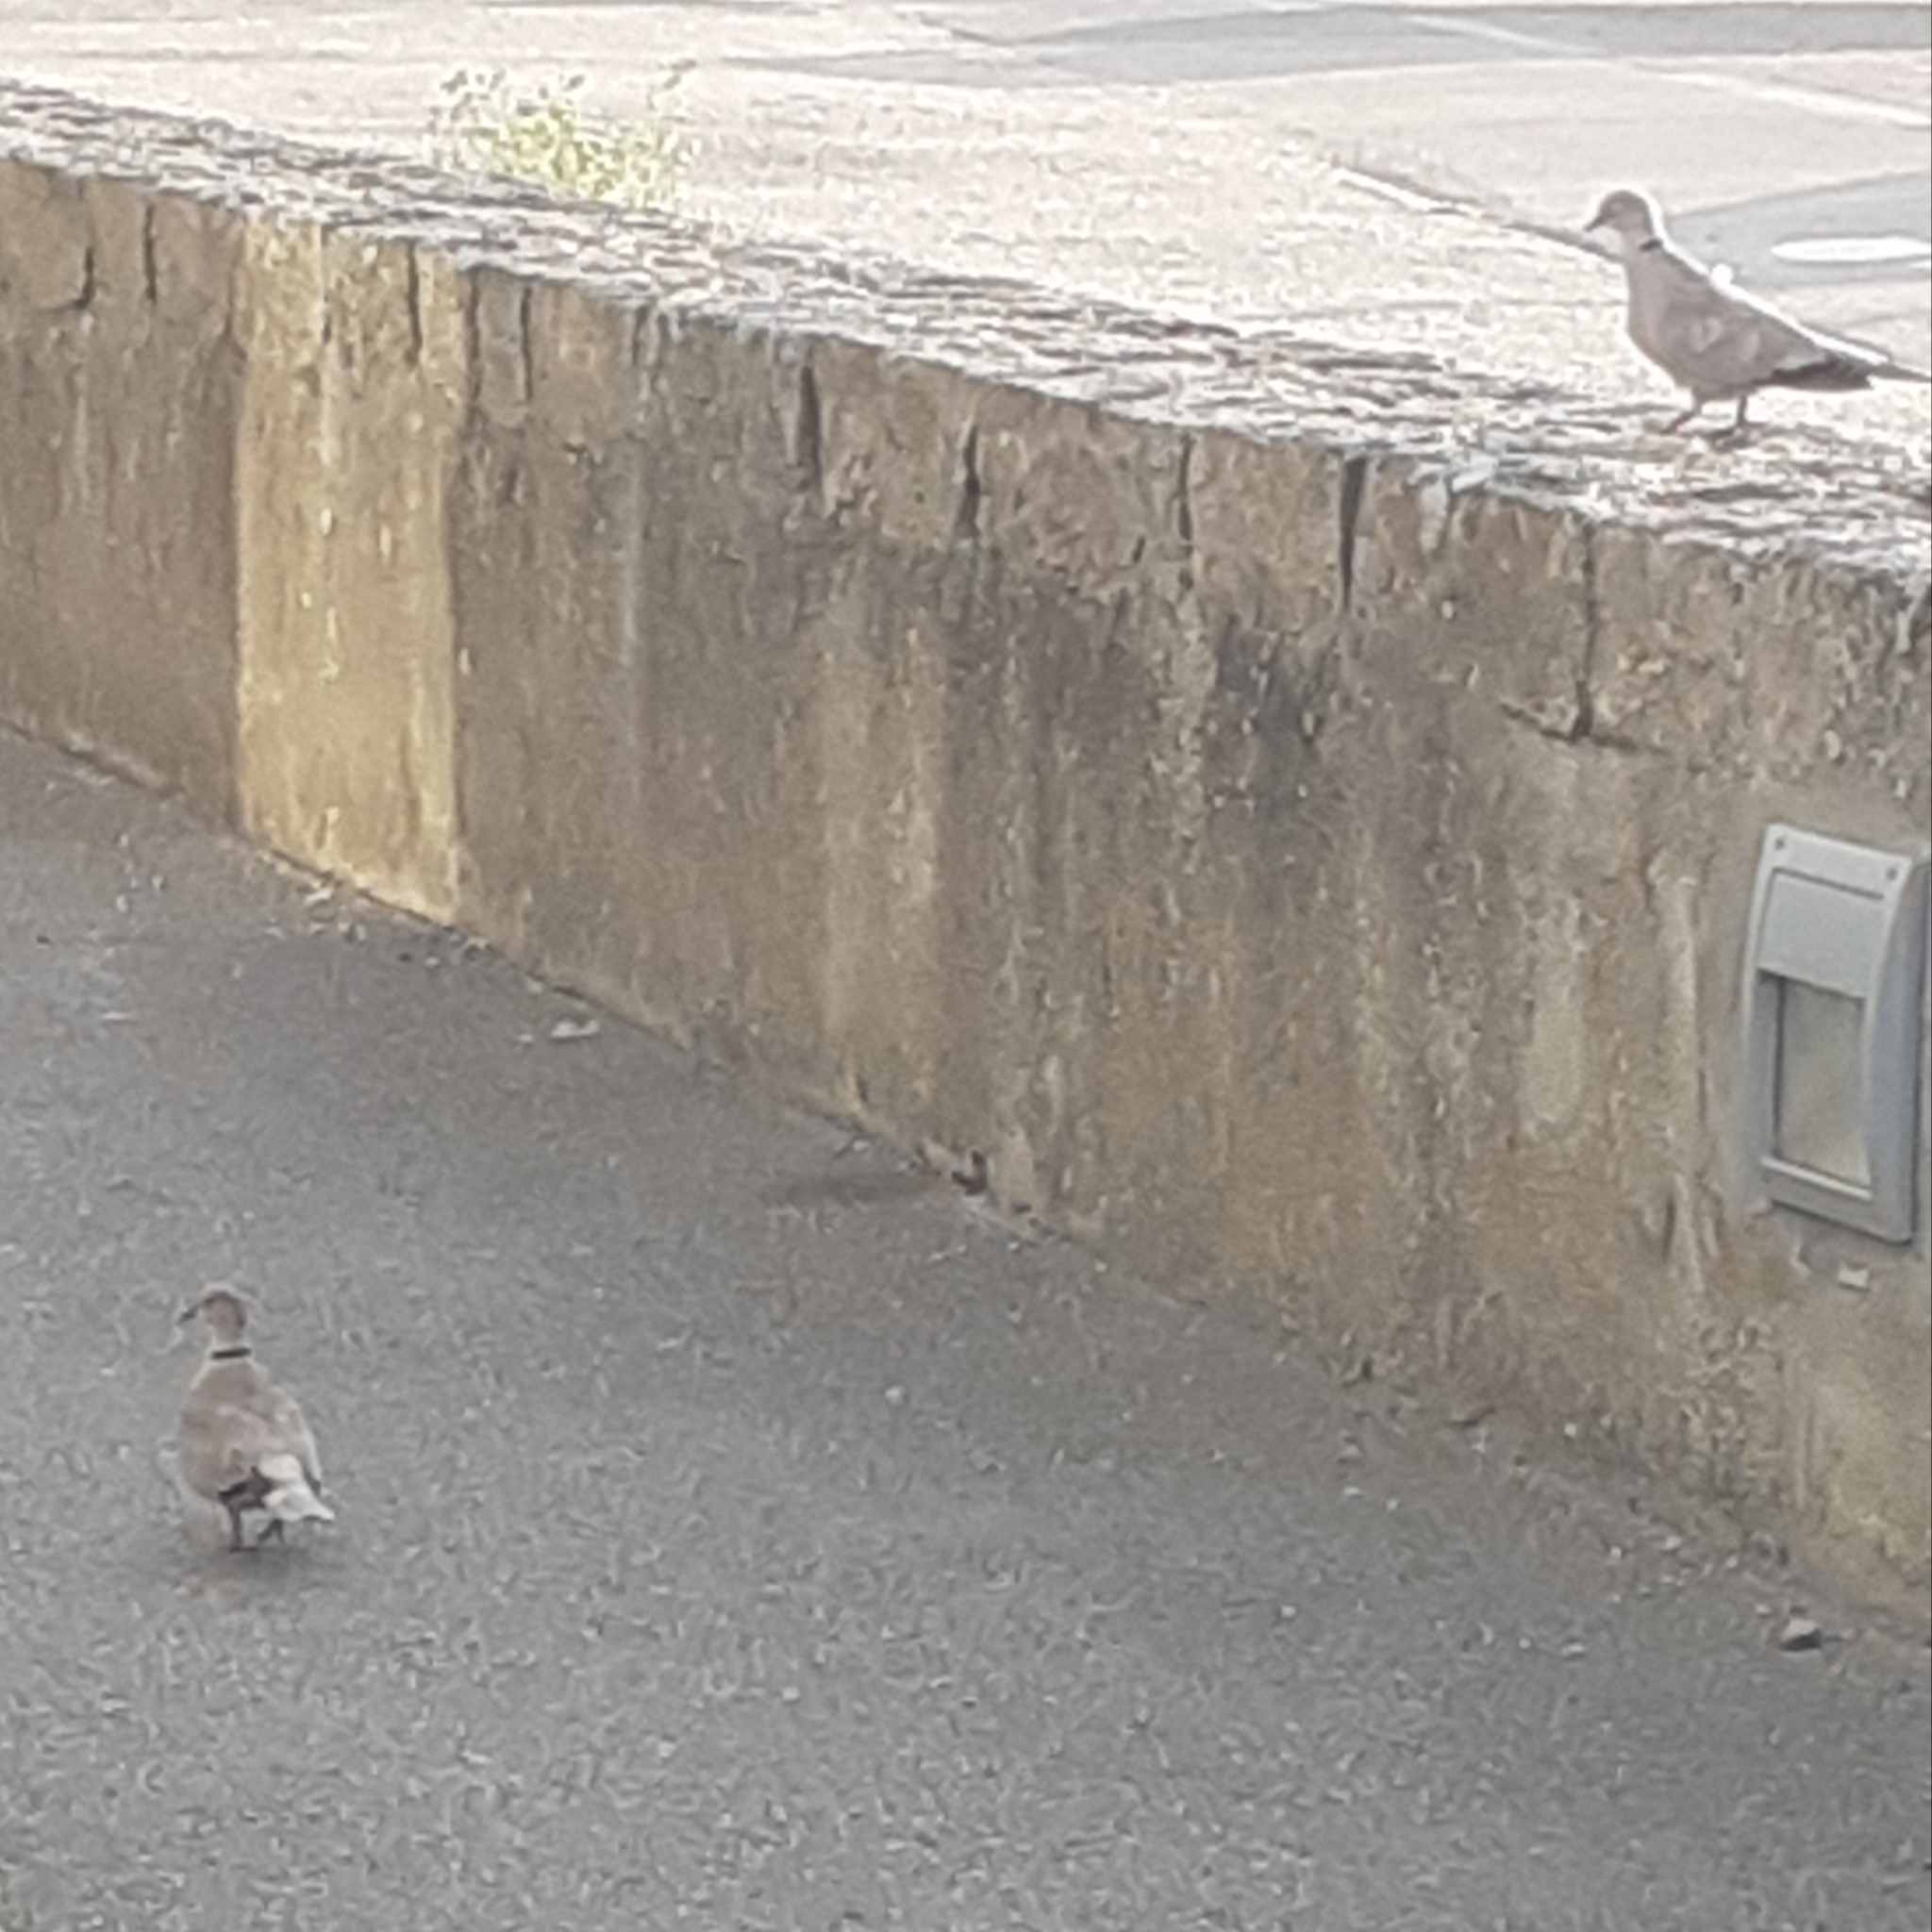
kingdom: Animalia
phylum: Chordata
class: Aves
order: Columbiformes
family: Columbidae
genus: Streptopelia
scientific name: Streptopelia decaocto
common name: Eurasian collared dove
